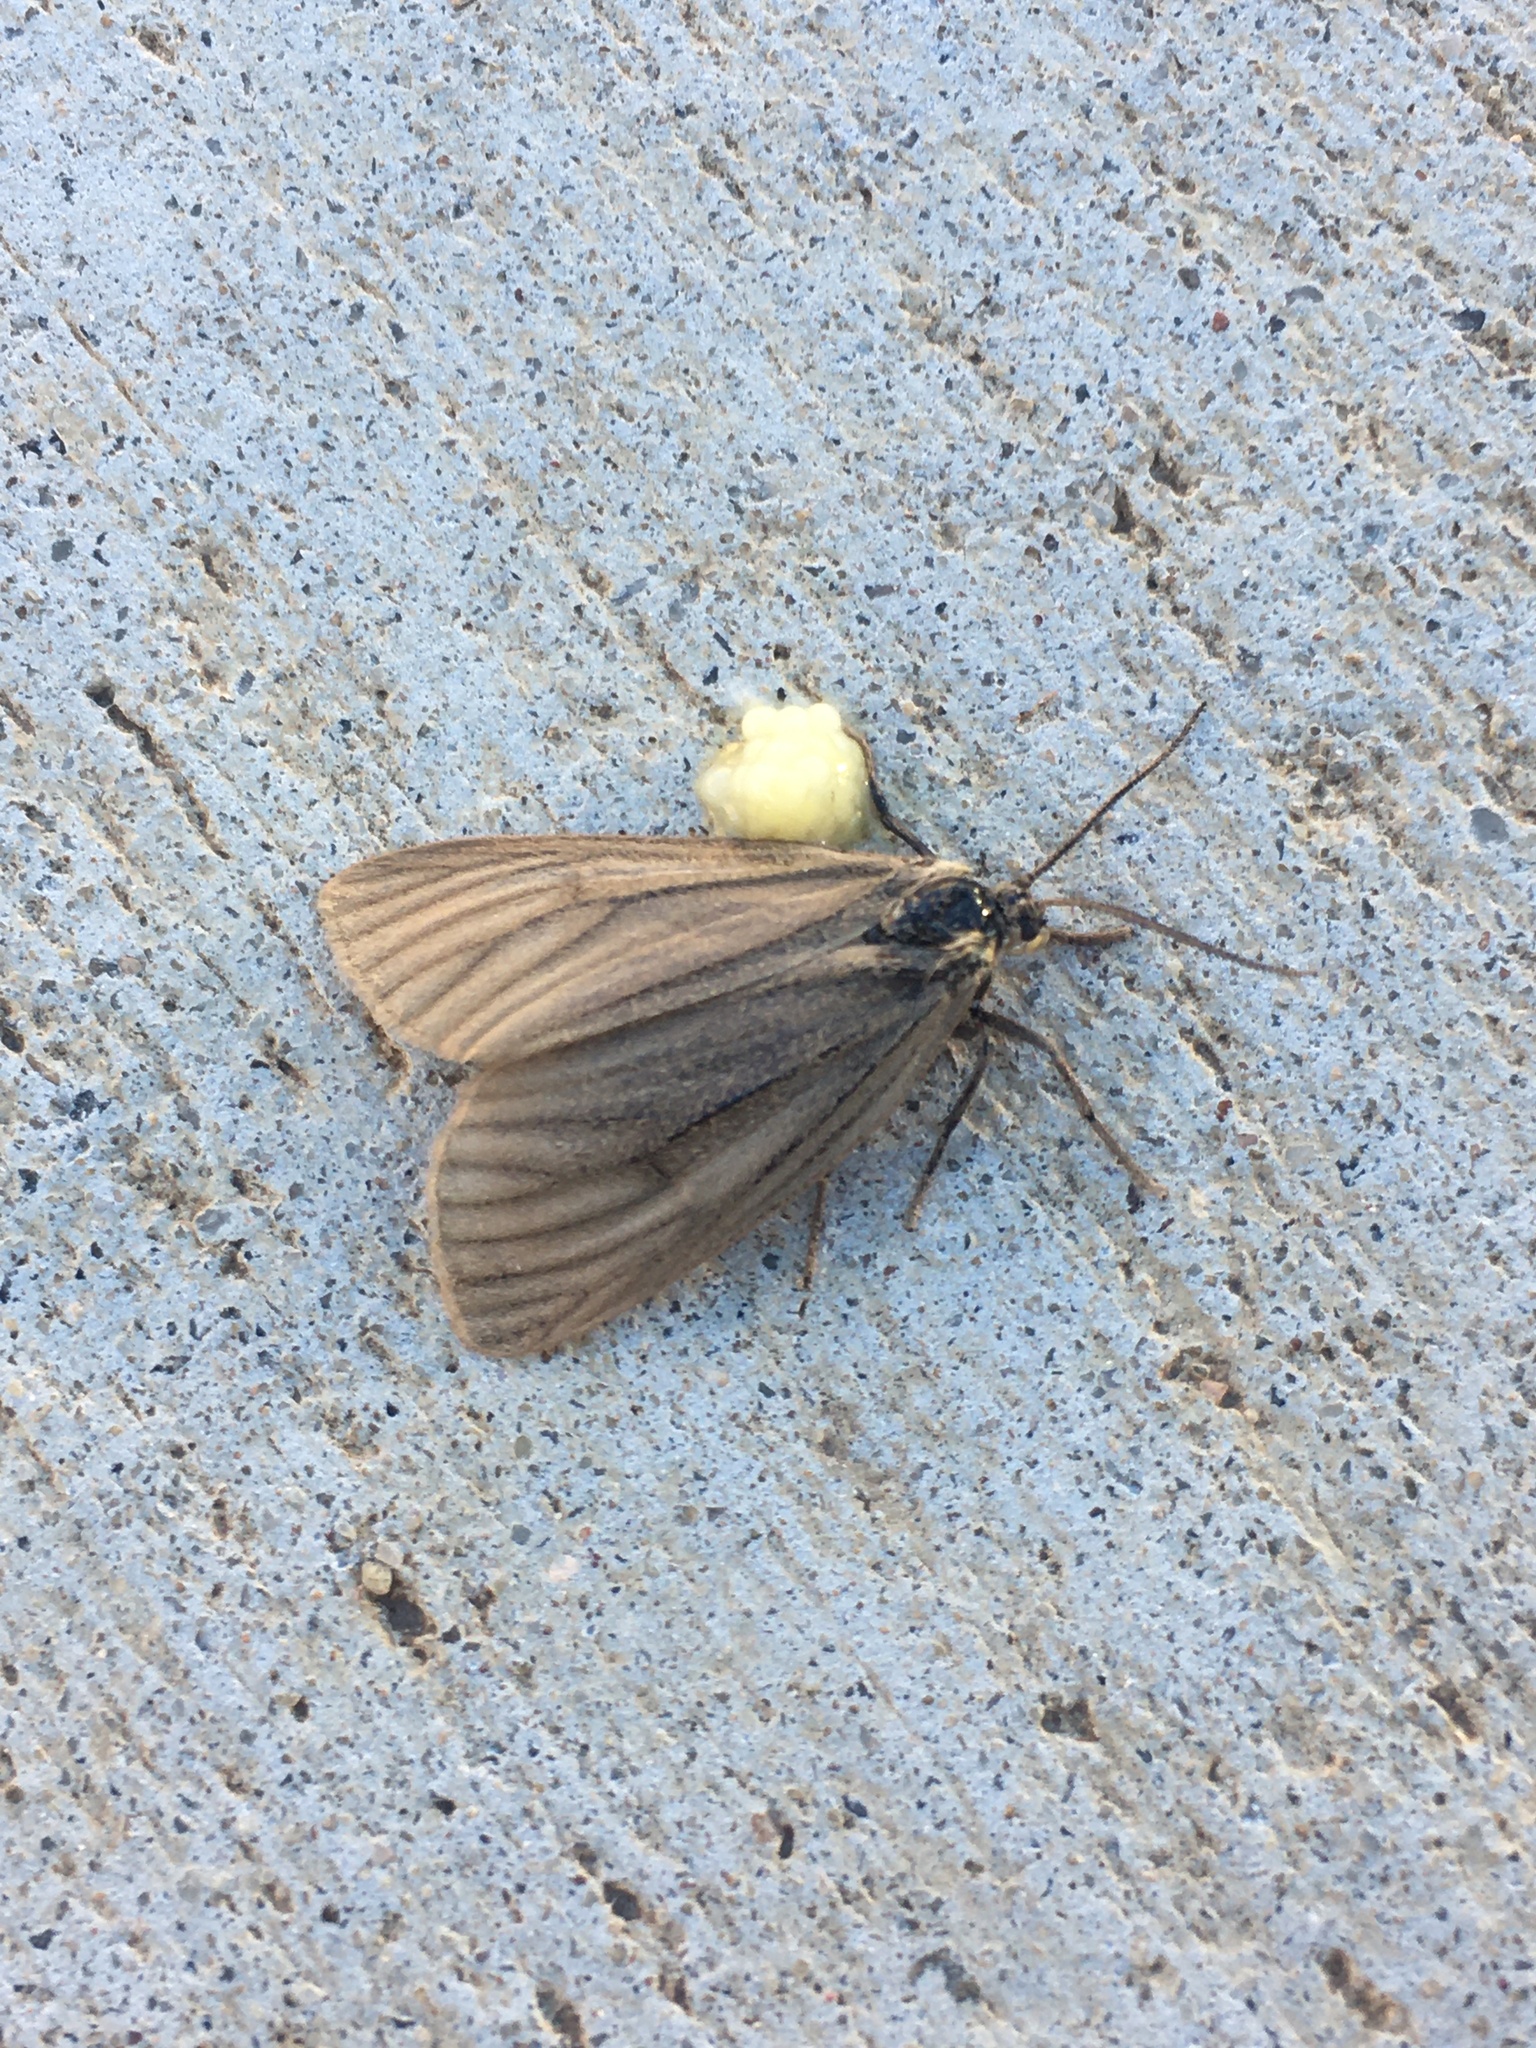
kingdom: Animalia
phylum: Arthropoda
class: Insecta
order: Lepidoptera
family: Notodontidae
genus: Phryganidia
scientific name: Phryganidia californica
